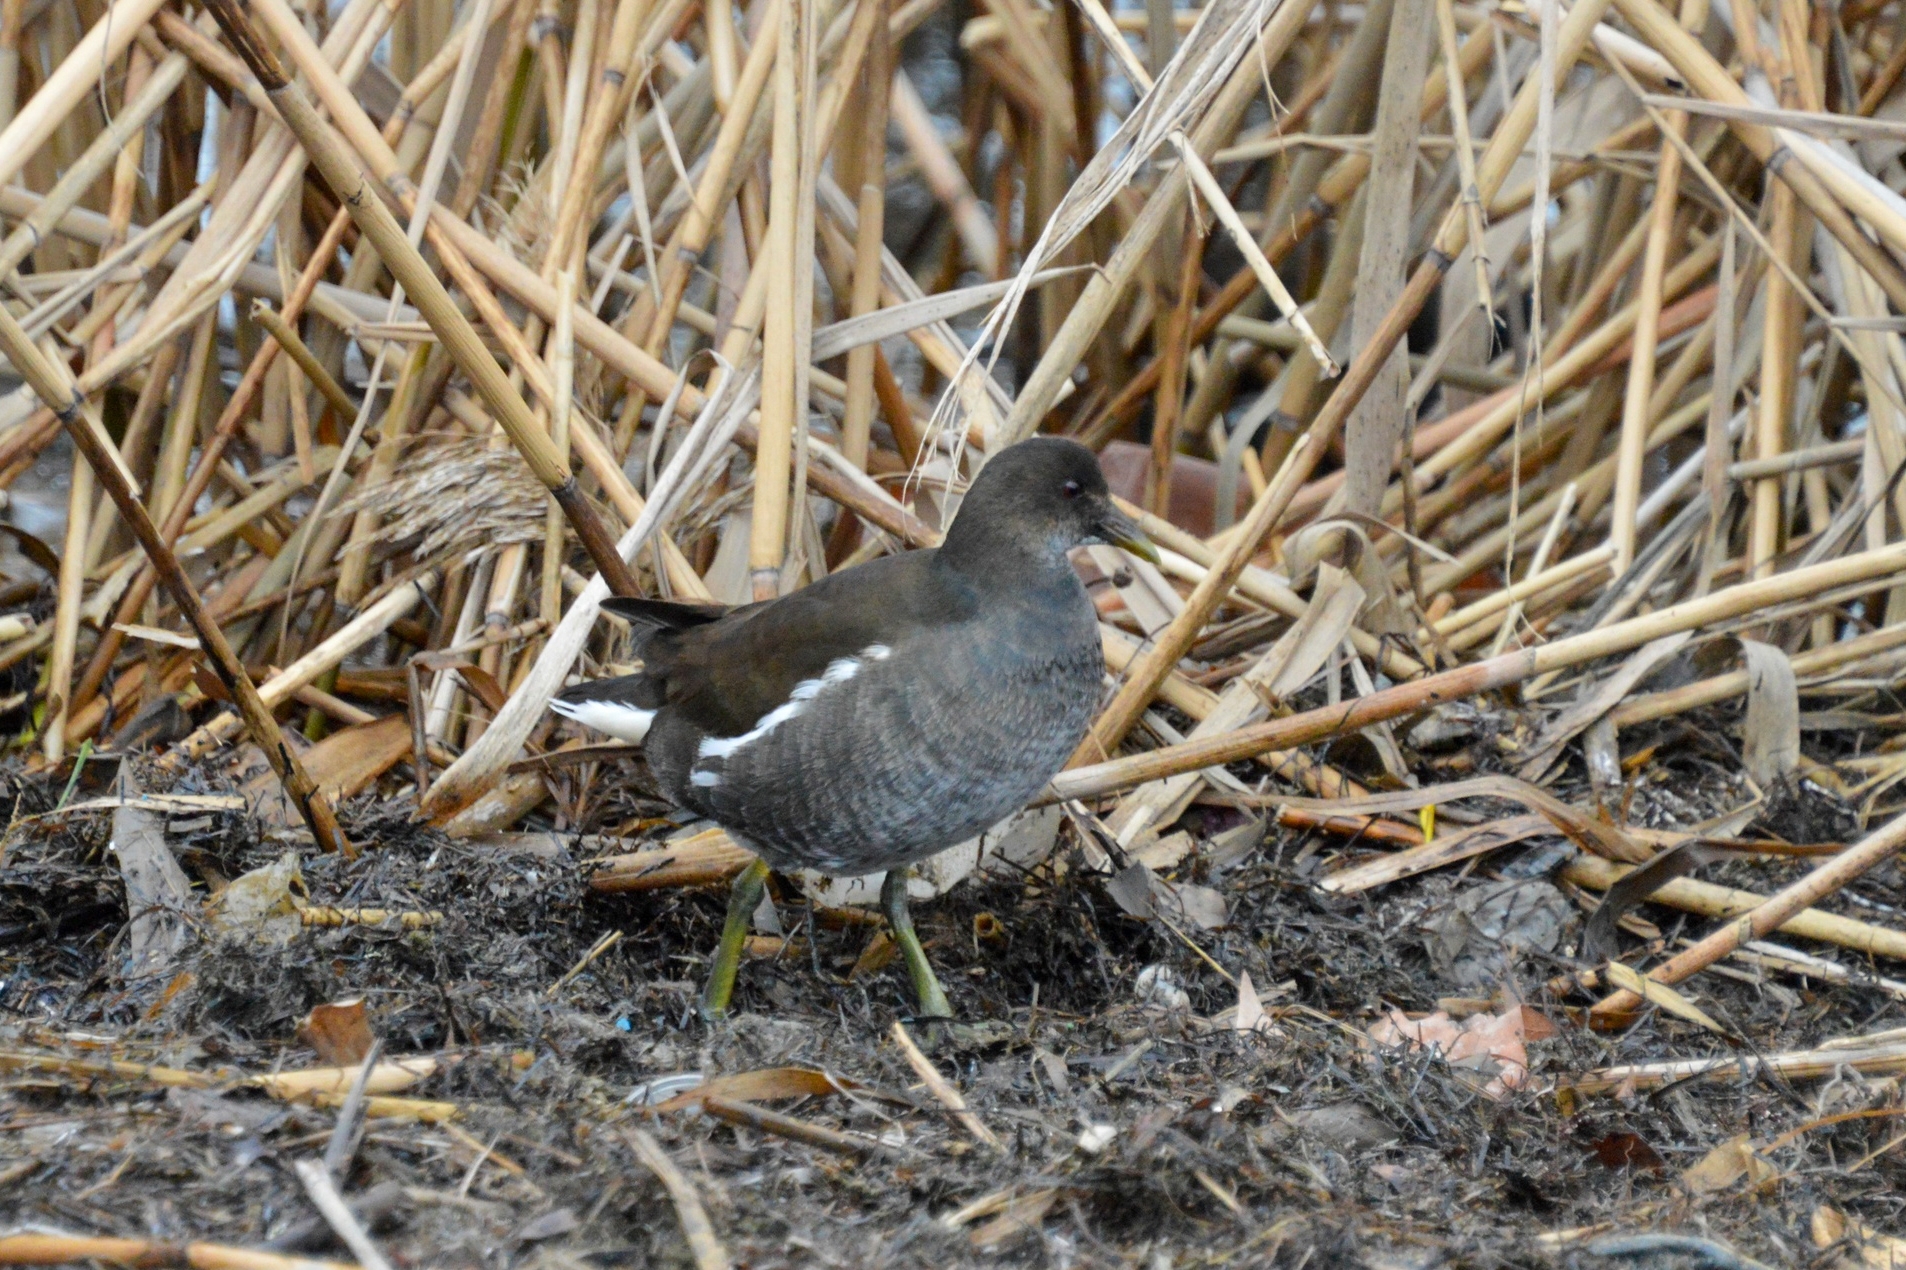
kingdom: Animalia
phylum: Chordata
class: Aves
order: Gruiformes
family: Rallidae
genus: Gallinula
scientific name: Gallinula chloropus
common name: Common moorhen
